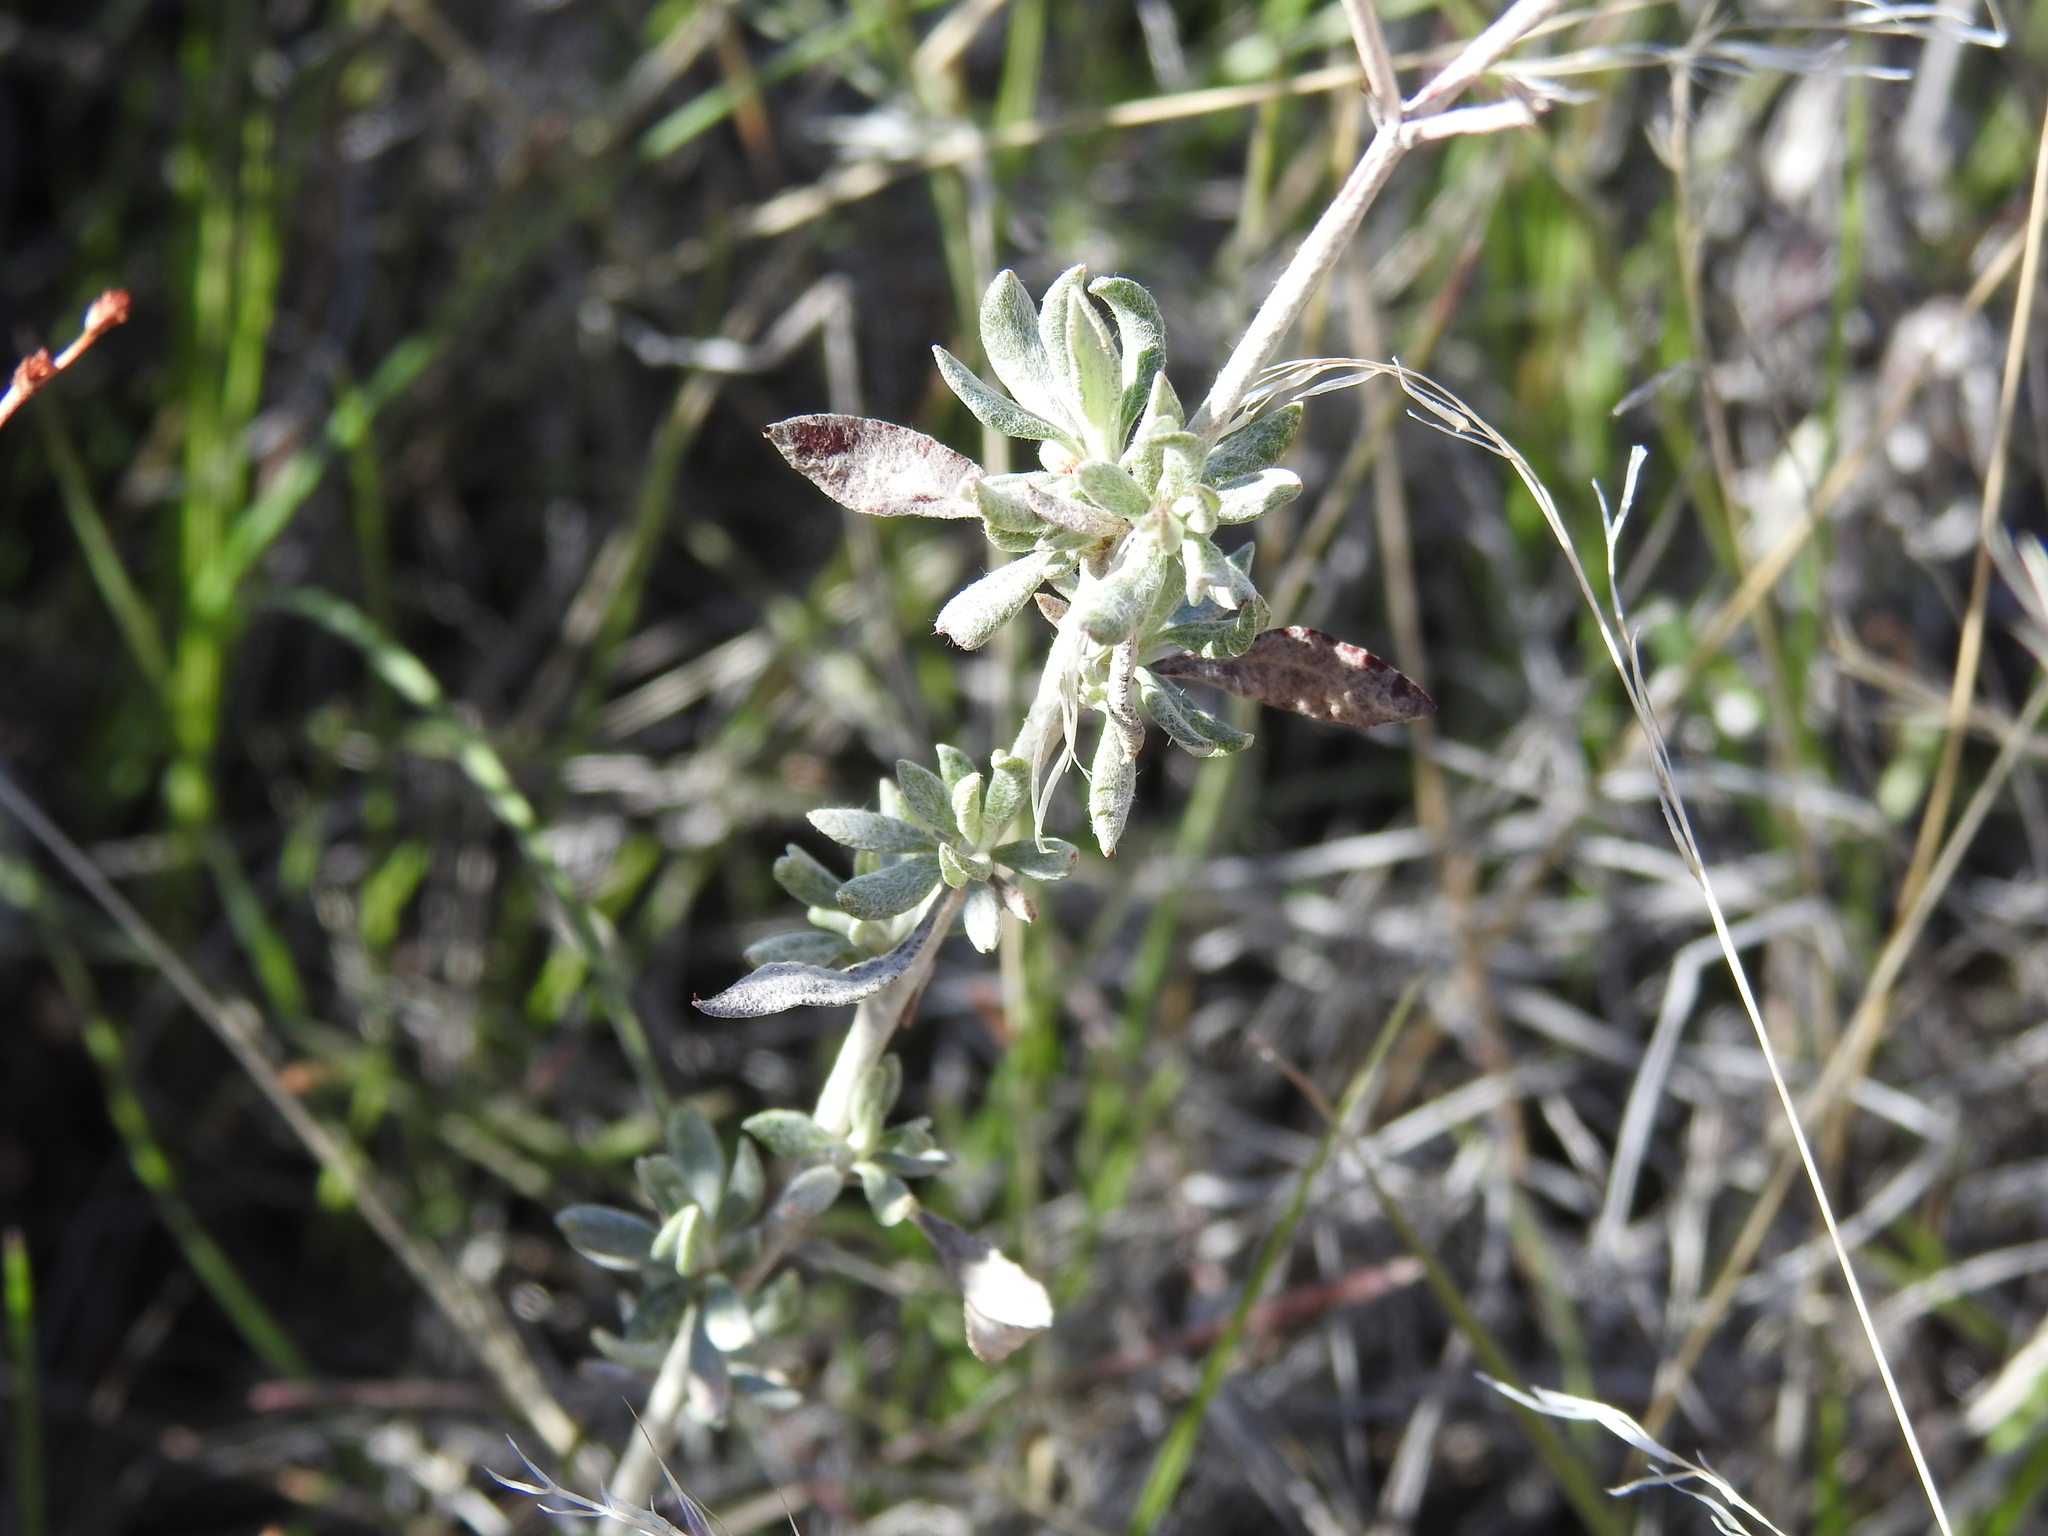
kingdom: Plantae
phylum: Tracheophyta
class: Magnoliopsida
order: Caryophyllales
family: Polygonaceae
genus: Eriogonum
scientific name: Eriogonum wrightii
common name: Bastard-sage
